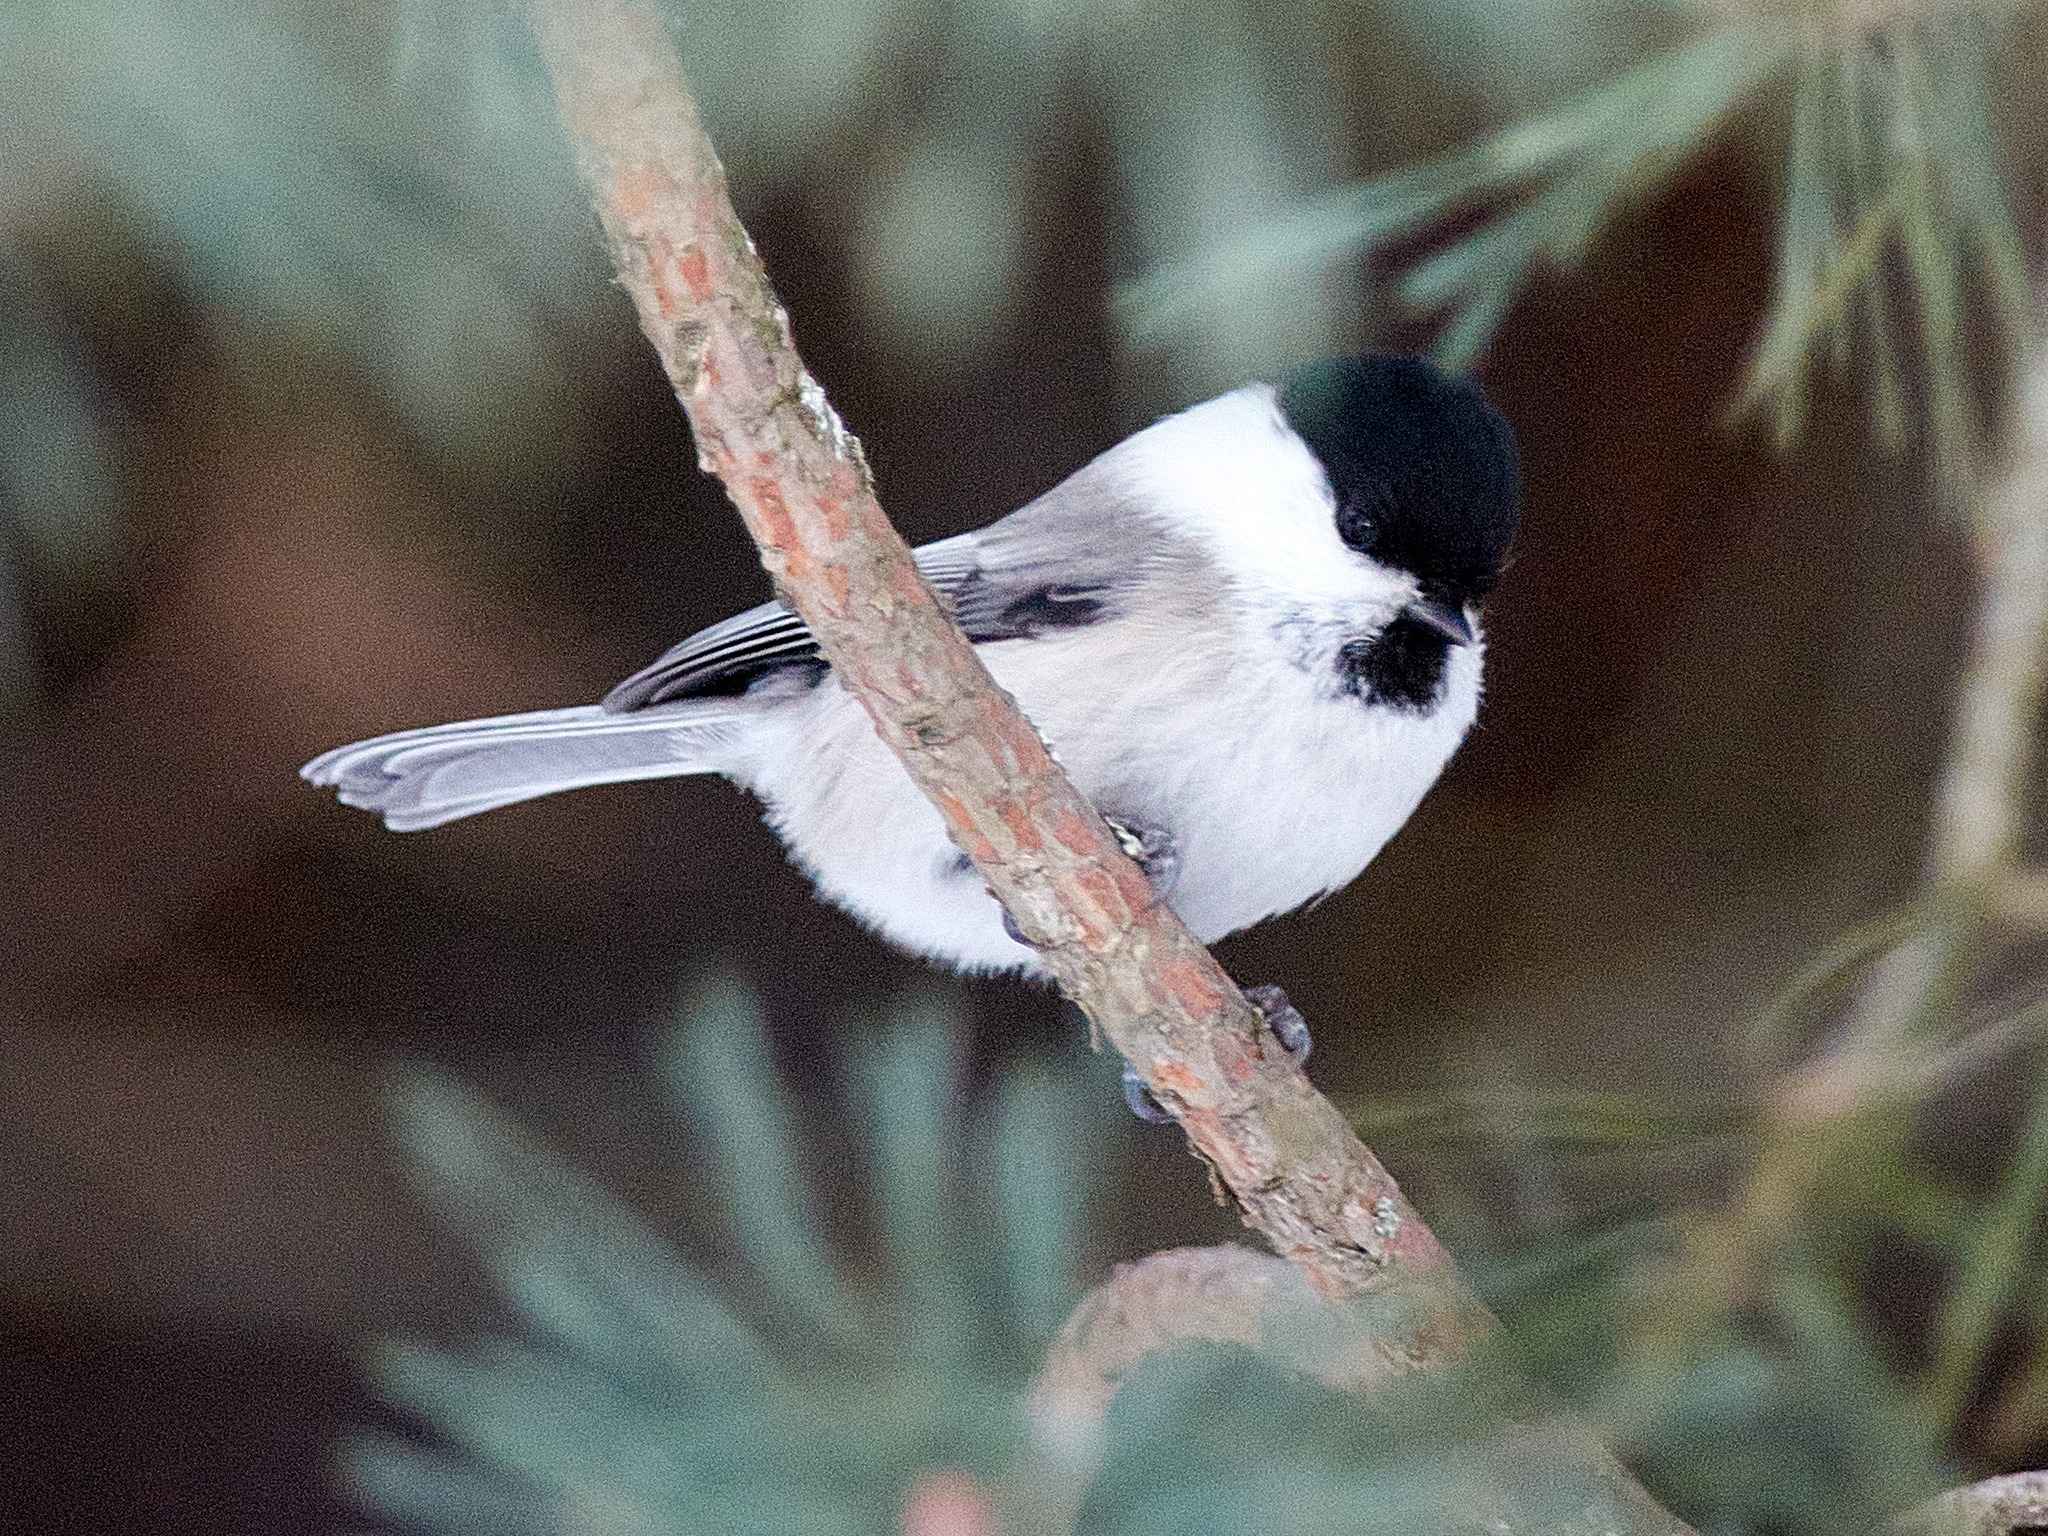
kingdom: Animalia
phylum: Chordata
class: Aves
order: Passeriformes
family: Paridae
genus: Poecile
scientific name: Poecile montanus
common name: Willow tit
